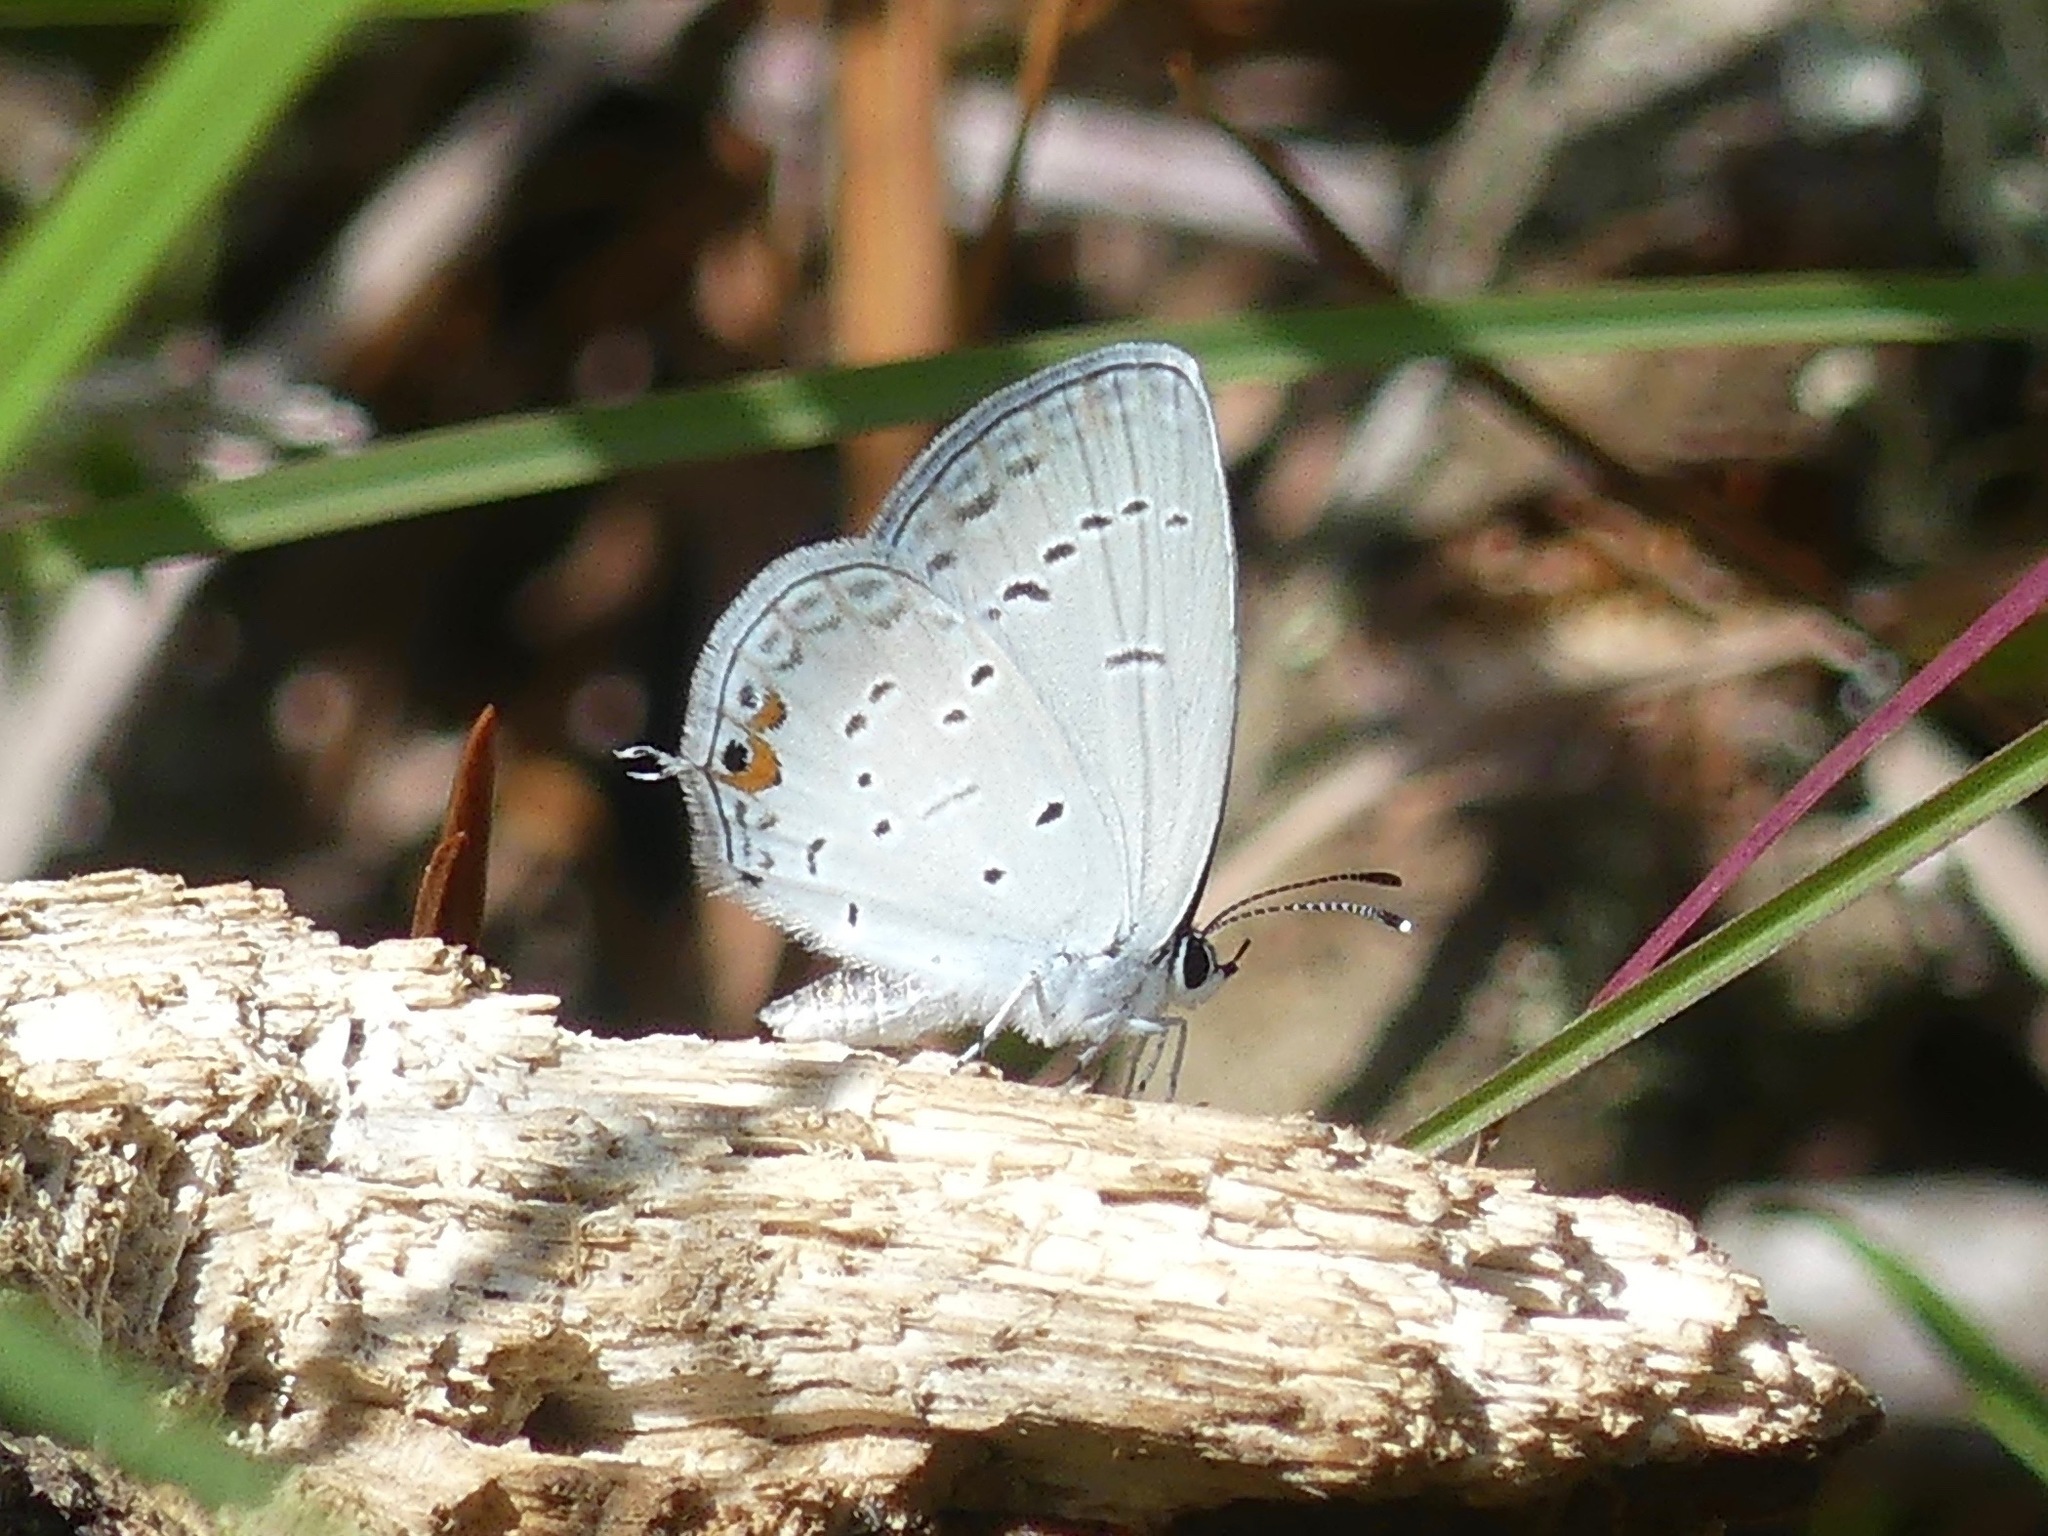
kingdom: Animalia
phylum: Arthropoda
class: Insecta
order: Lepidoptera
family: Lycaenidae
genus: Elkalyce
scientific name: Elkalyce comyntas
